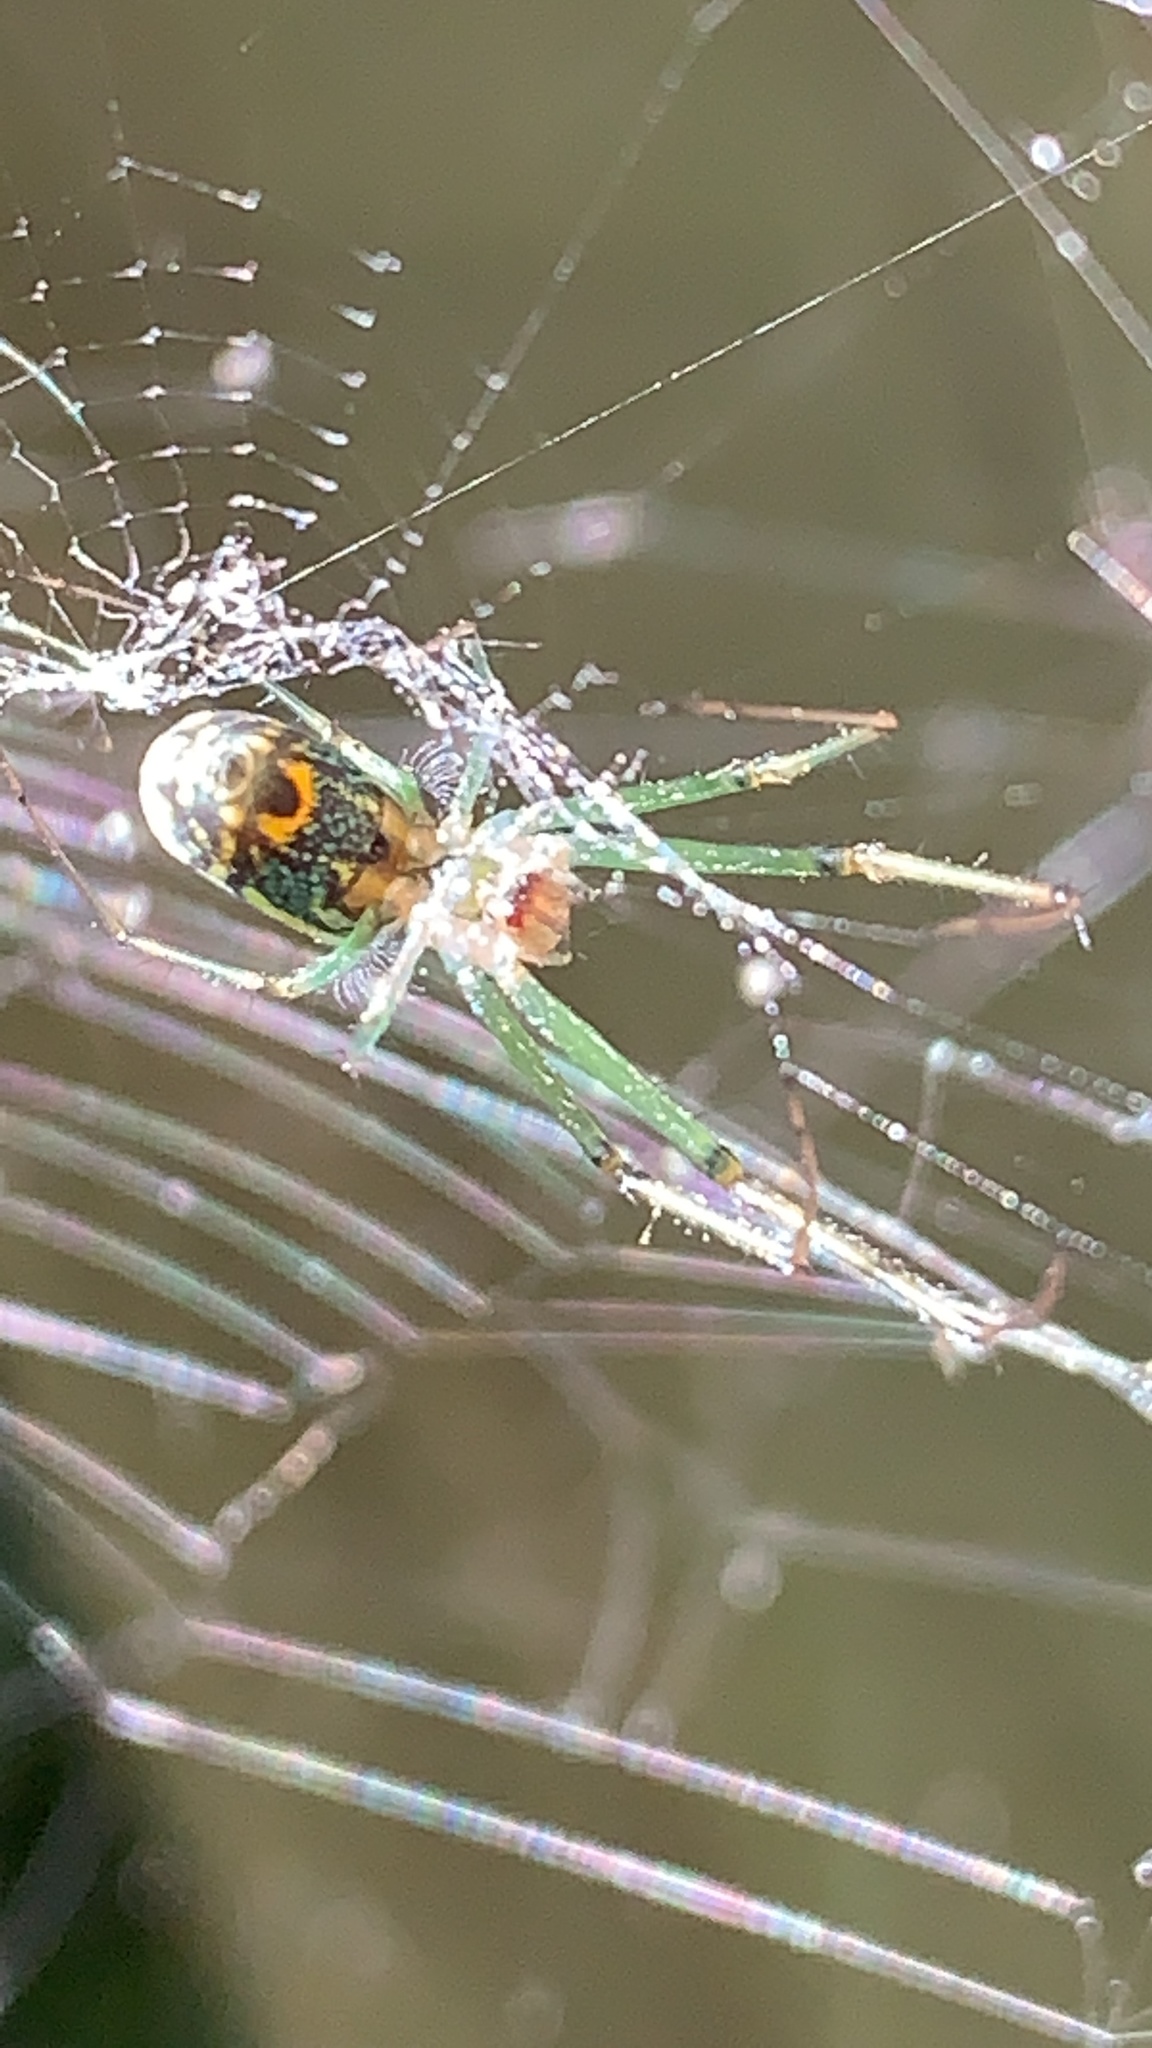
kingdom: Animalia
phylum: Arthropoda
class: Arachnida
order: Araneae
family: Tetragnathidae
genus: Leucauge
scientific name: Leucauge venusta
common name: Longjawed orb weavers
